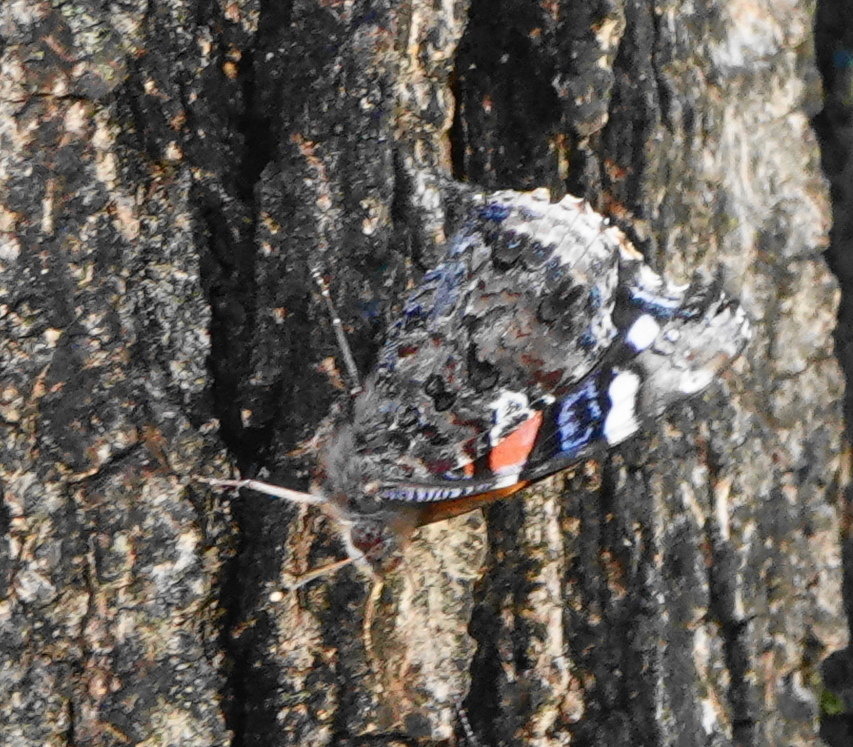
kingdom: Animalia
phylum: Arthropoda
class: Insecta
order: Lepidoptera
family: Nymphalidae
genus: Vanessa
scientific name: Vanessa atalanta
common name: Red admiral
